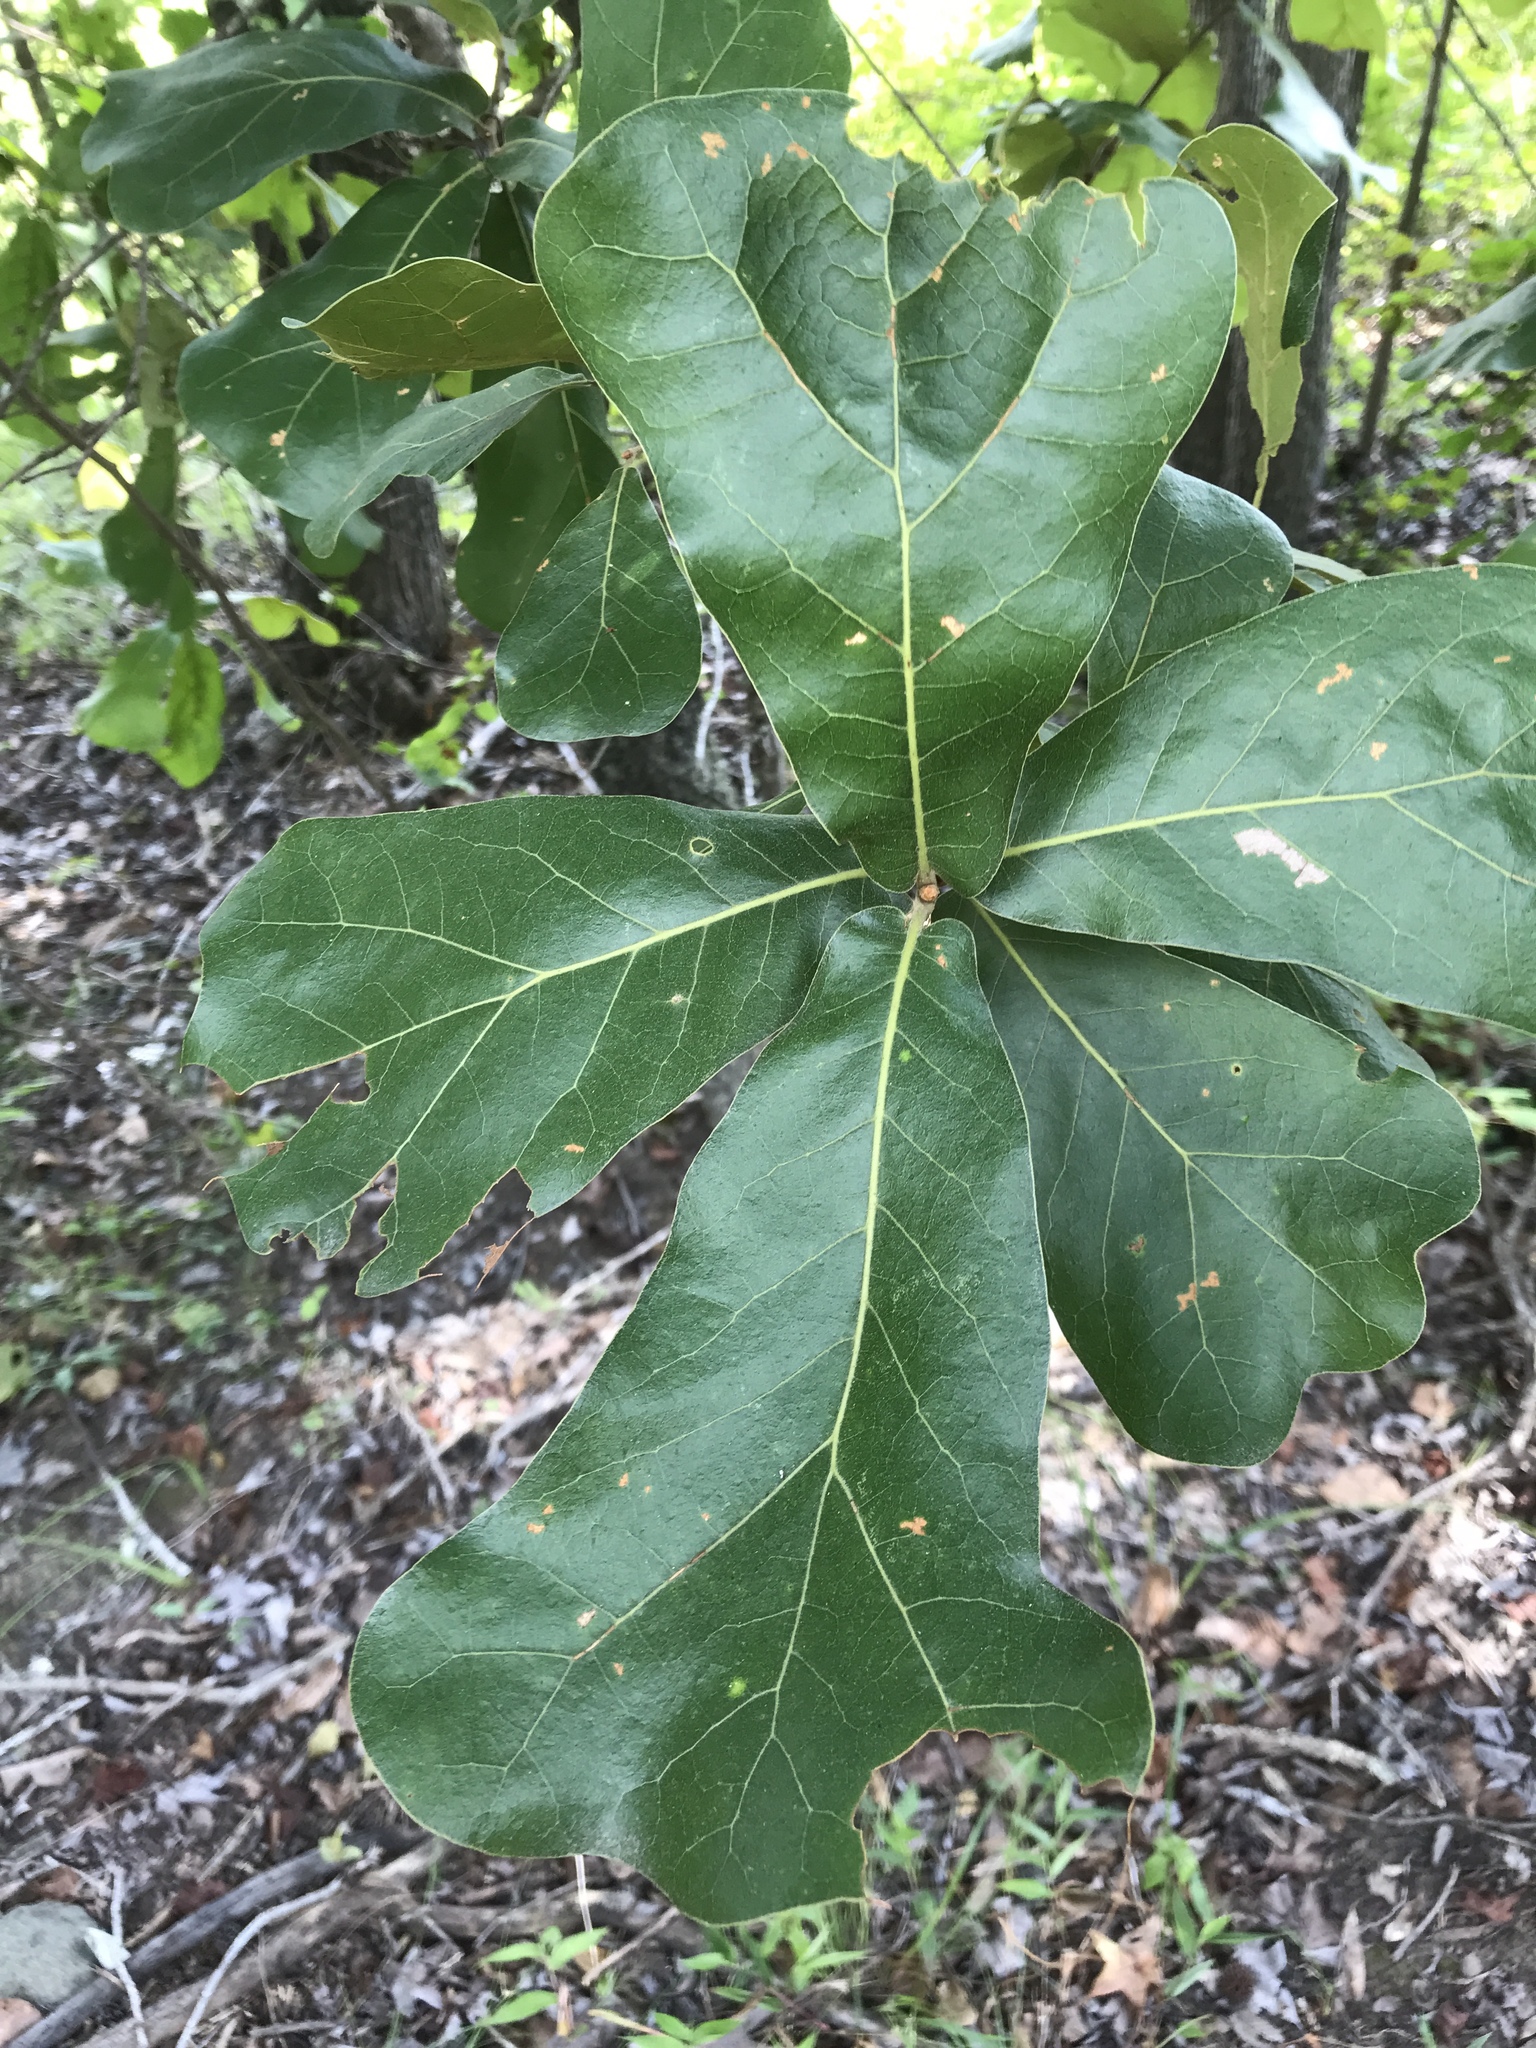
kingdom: Plantae
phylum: Tracheophyta
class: Magnoliopsida
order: Fagales
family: Fagaceae
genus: Quercus
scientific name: Quercus marilandica
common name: Blackjack oak
